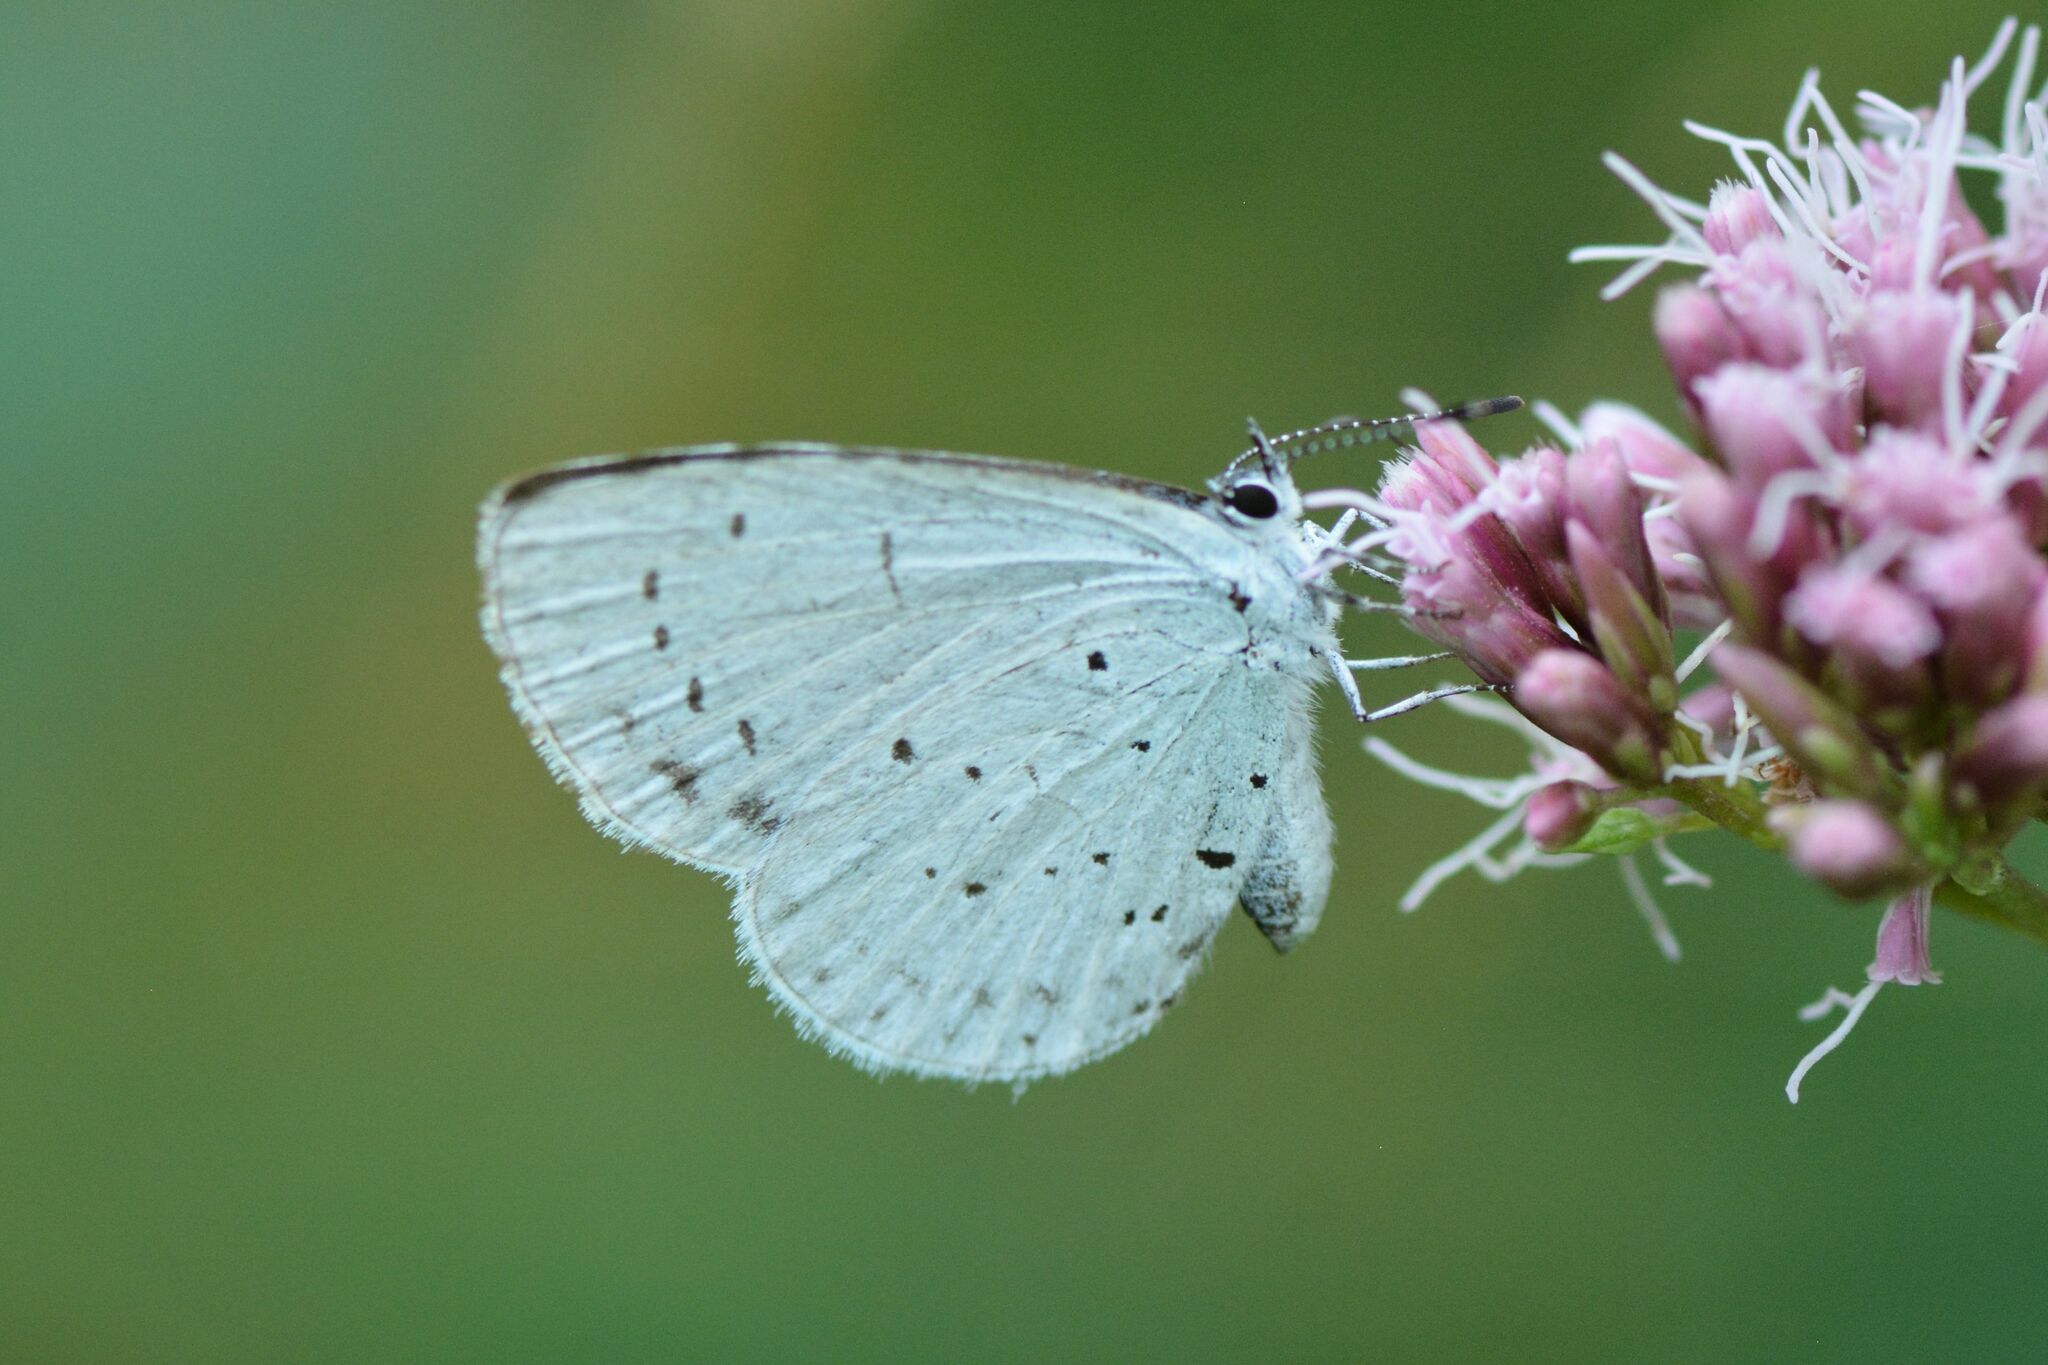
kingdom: Animalia
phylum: Arthropoda
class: Insecta
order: Lepidoptera
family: Lycaenidae
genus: Celastrina
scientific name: Celastrina argiolus
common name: Holly blue
